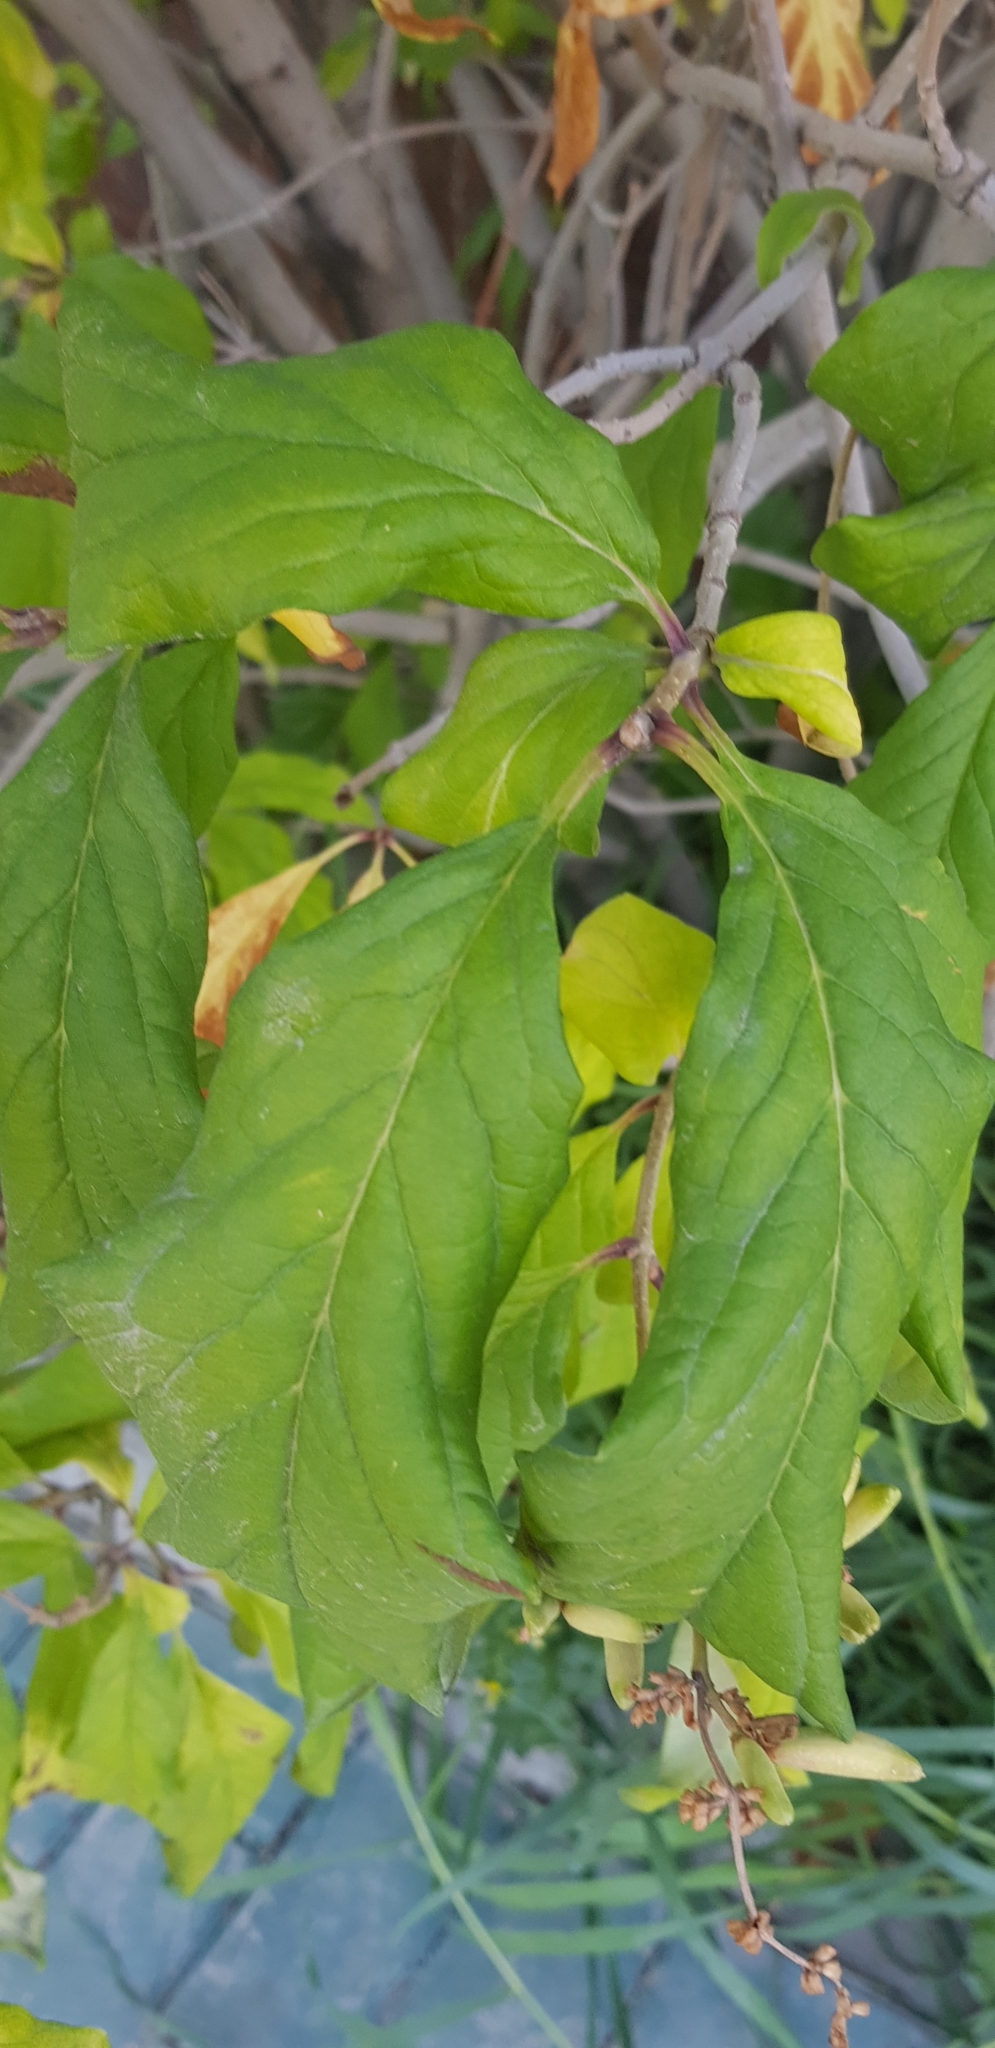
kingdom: Plantae
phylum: Tracheophyta
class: Magnoliopsida
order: Rosales
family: Rosaceae
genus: Prunus
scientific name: Prunus avium
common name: Sweet cherry
